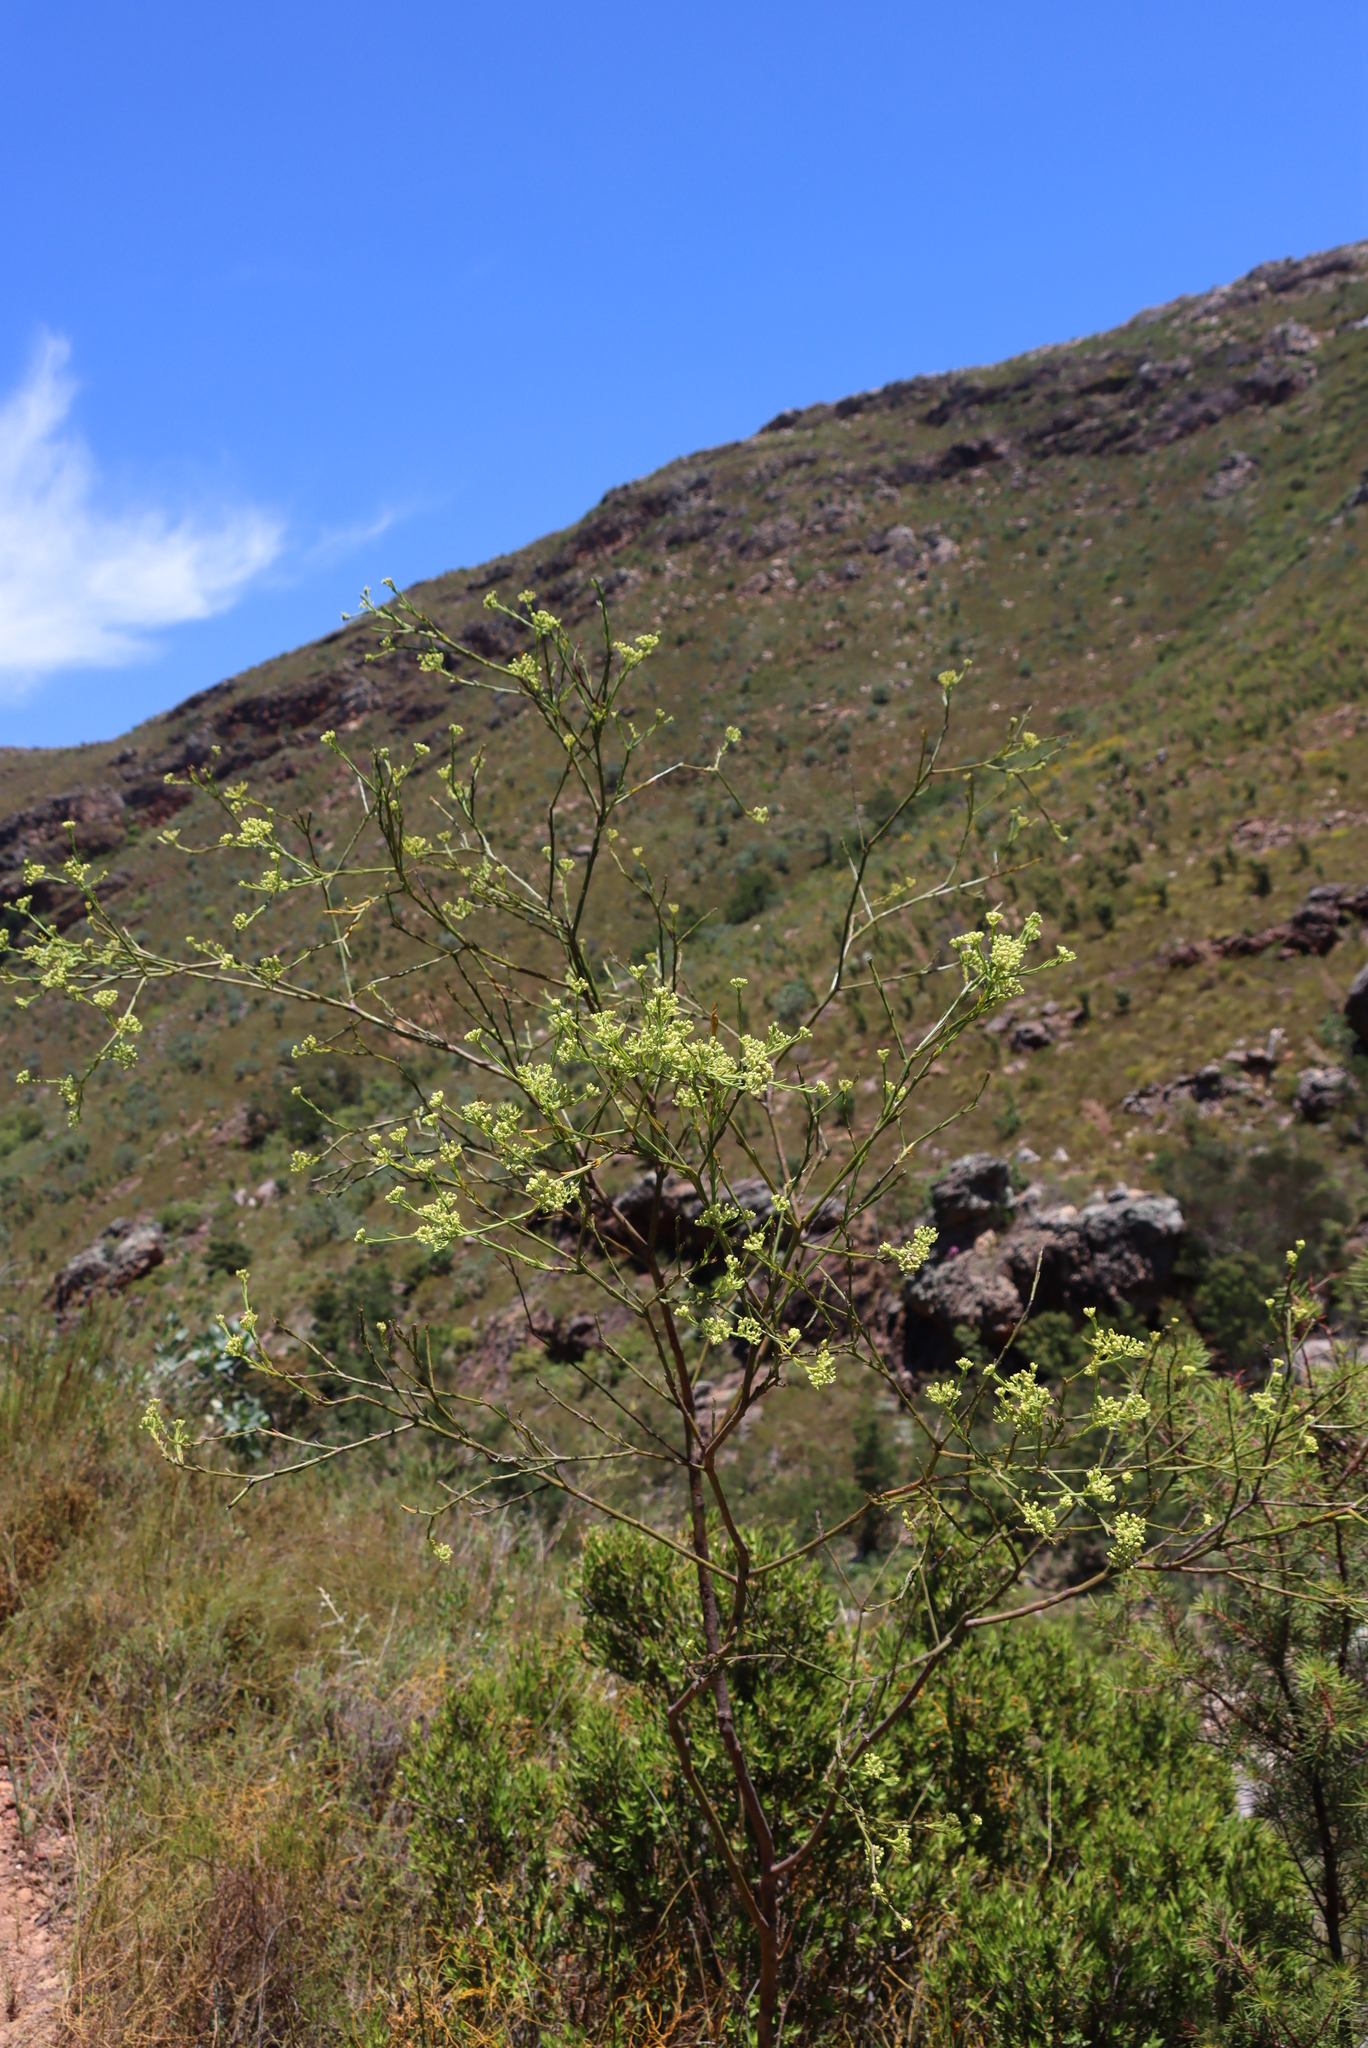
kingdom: Plantae
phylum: Tracheophyta
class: Magnoliopsida
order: Santalales
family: Thesiaceae
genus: Thesium
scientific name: Thesium strictum
